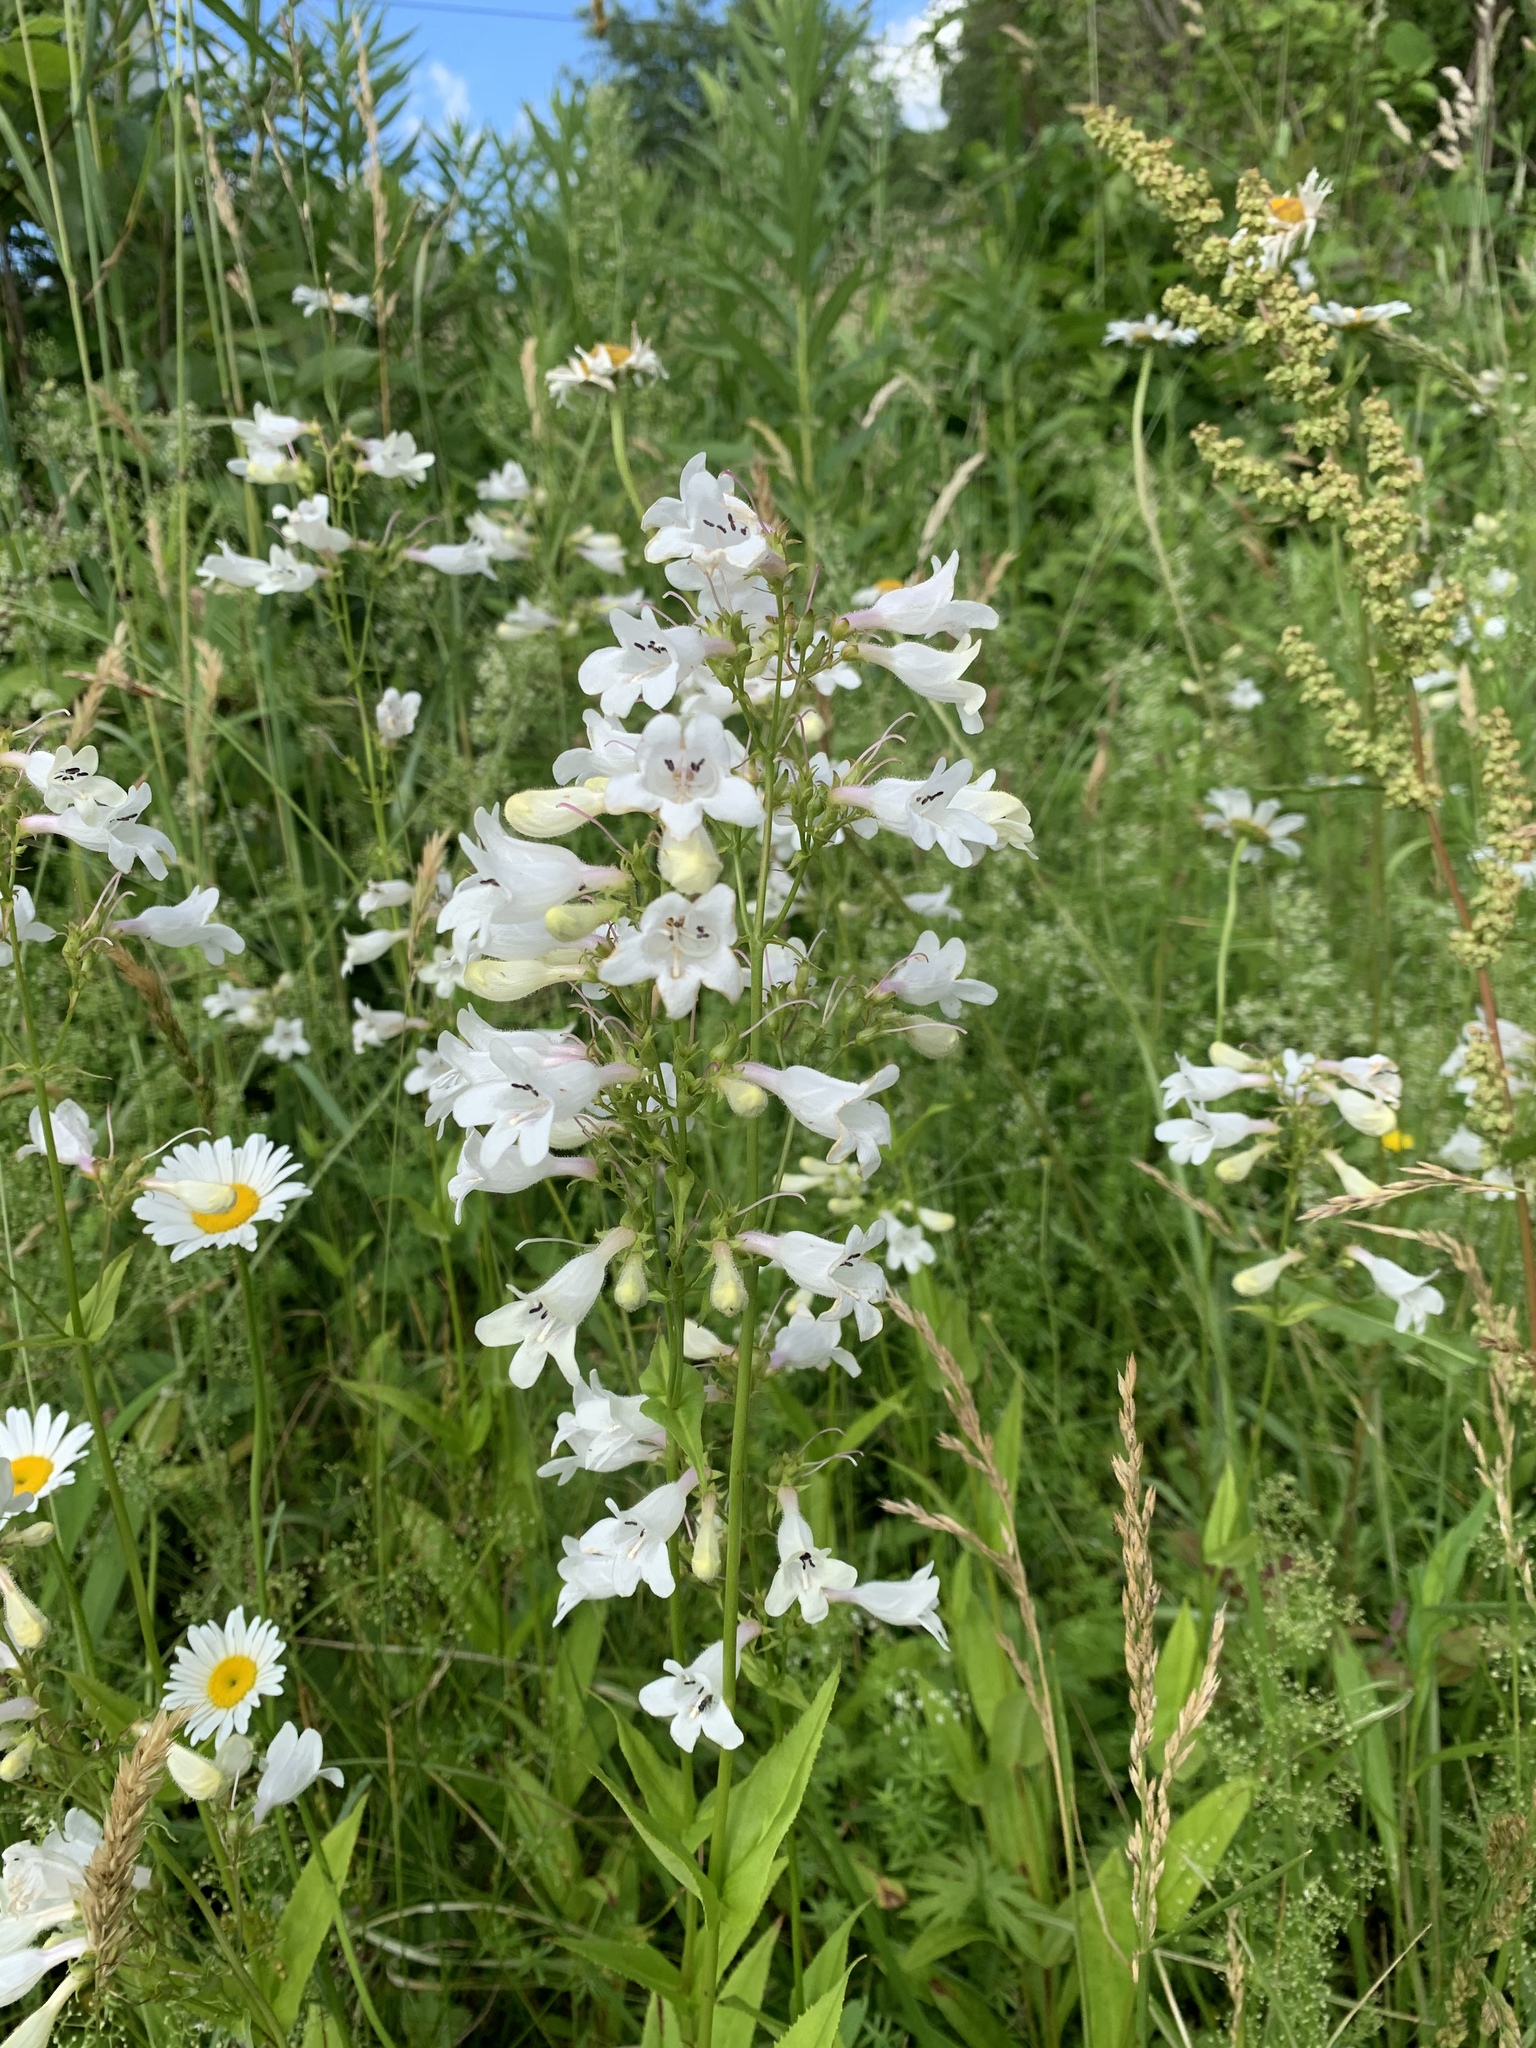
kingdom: Plantae
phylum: Tracheophyta
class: Magnoliopsida
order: Lamiales
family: Plantaginaceae
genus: Penstemon
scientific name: Penstemon digitalis
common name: Foxglove beardtongue
